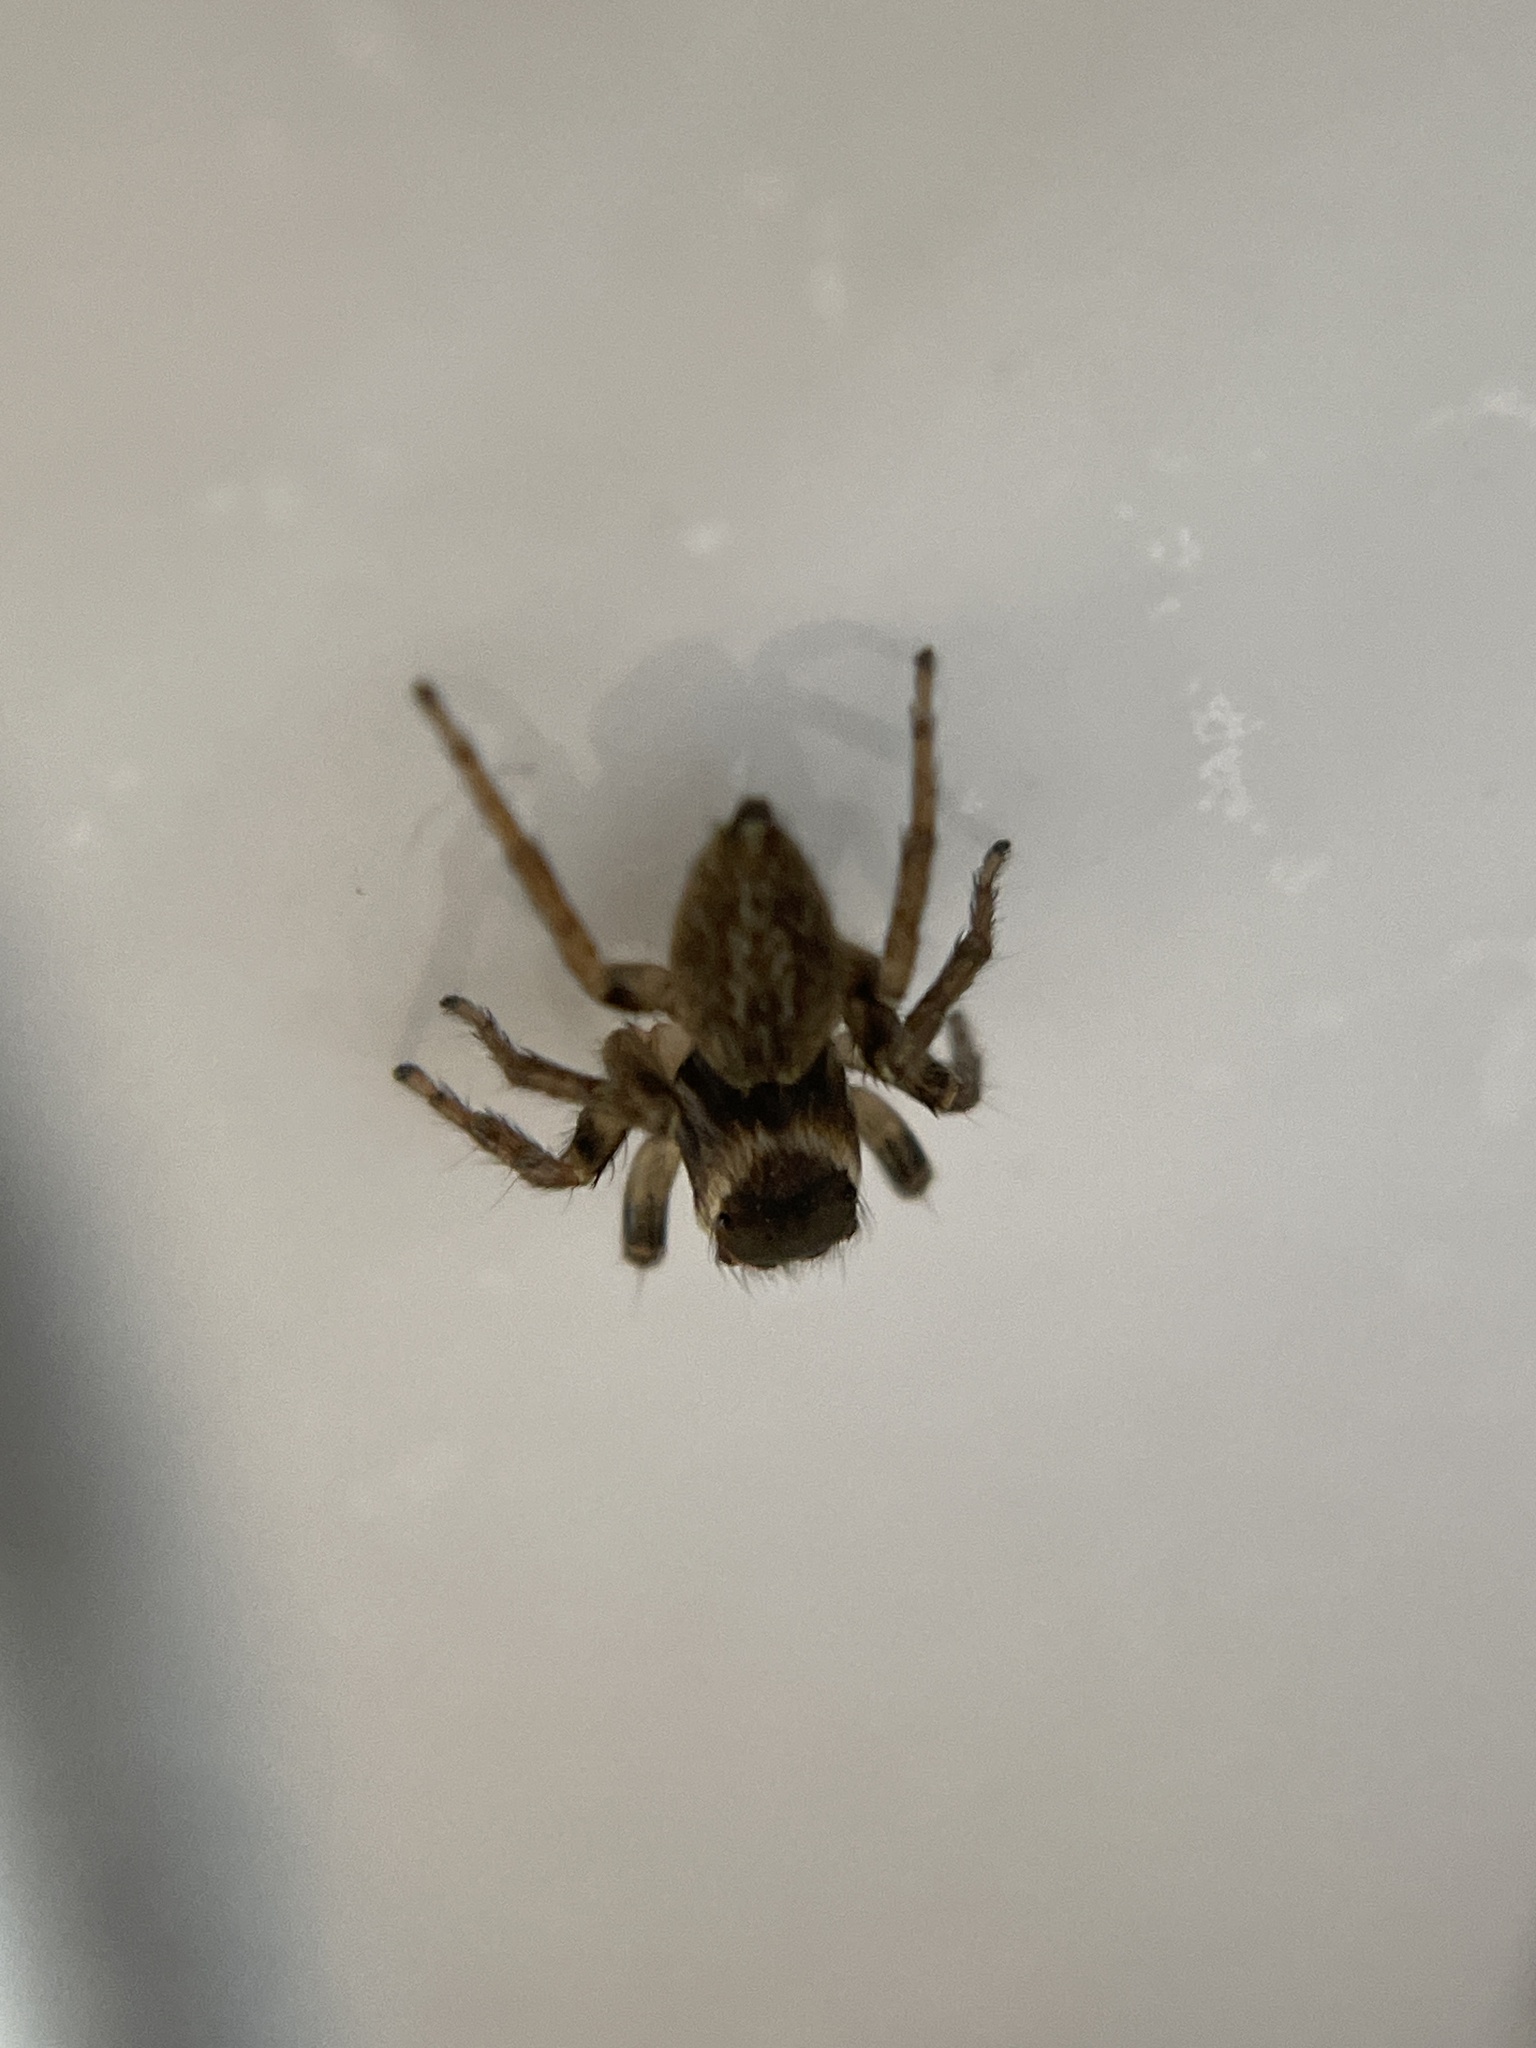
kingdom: Animalia
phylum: Arthropoda
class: Arachnida
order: Araneae
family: Salticidae
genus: Maratus
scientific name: Maratus griseus
